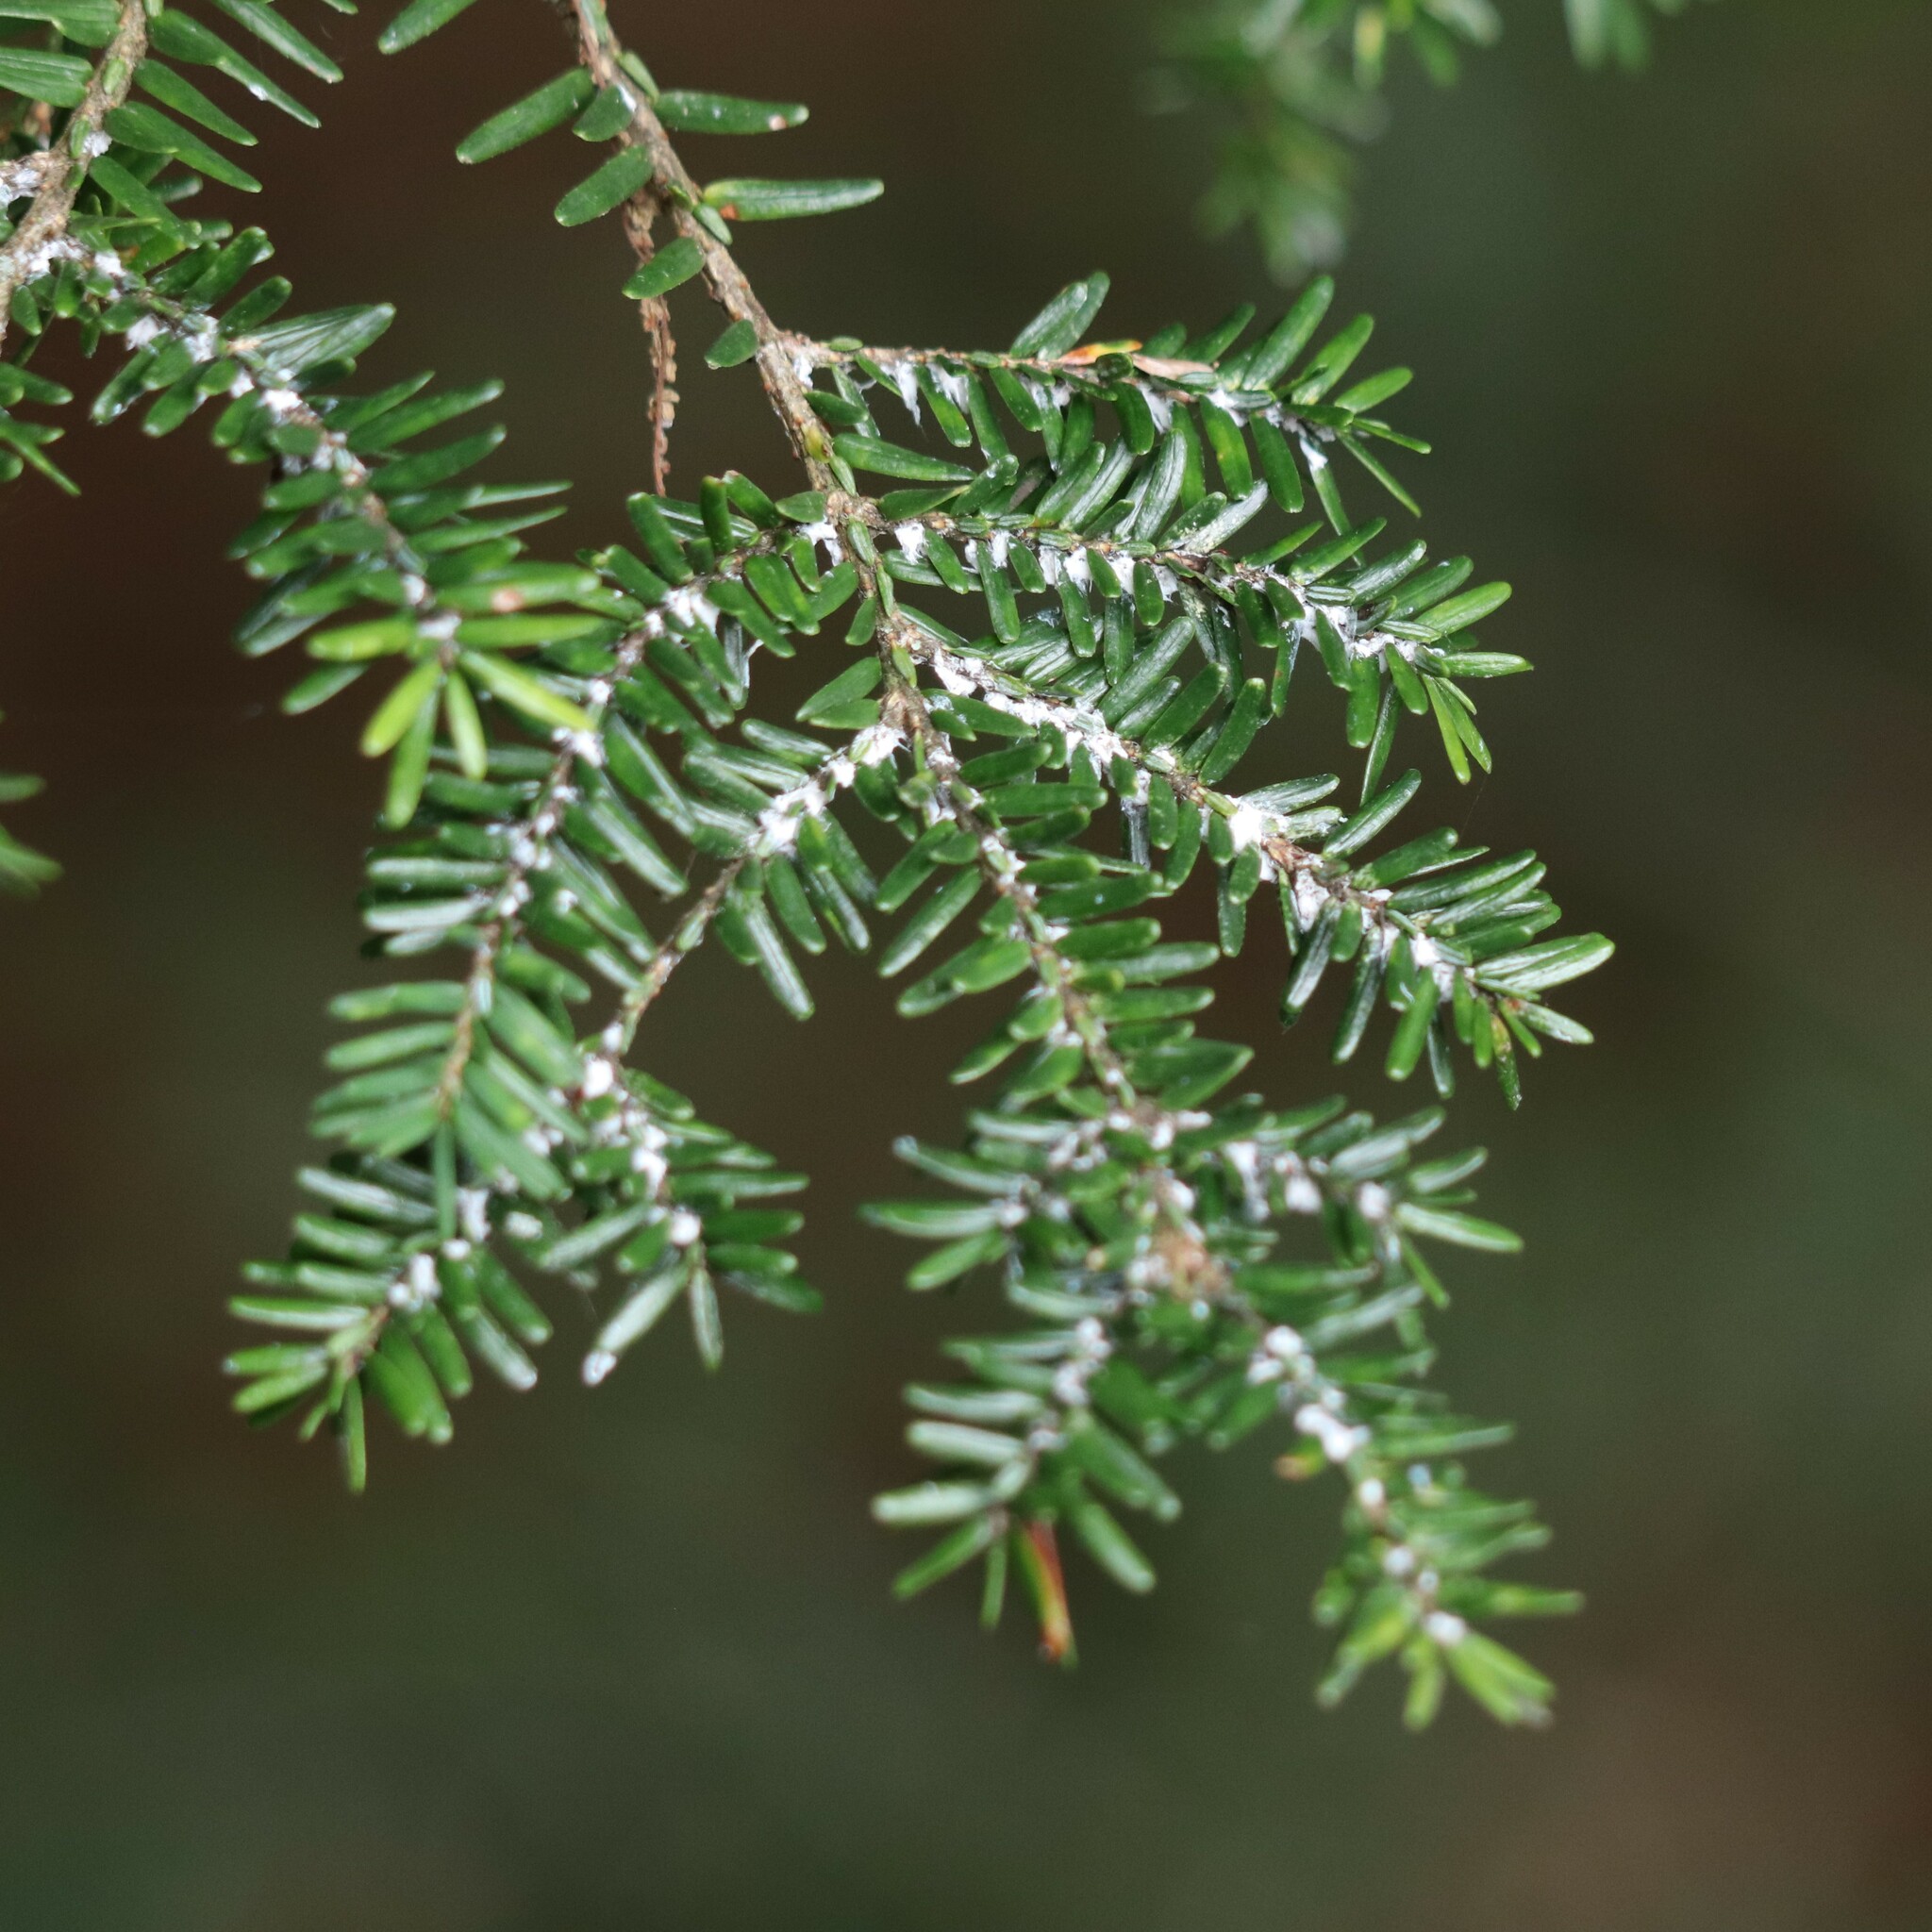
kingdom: Plantae
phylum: Tracheophyta
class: Pinopsida
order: Pinales
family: Pinaceae
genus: Tsuga
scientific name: Tsuga canadensis
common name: Eastern hemlock
